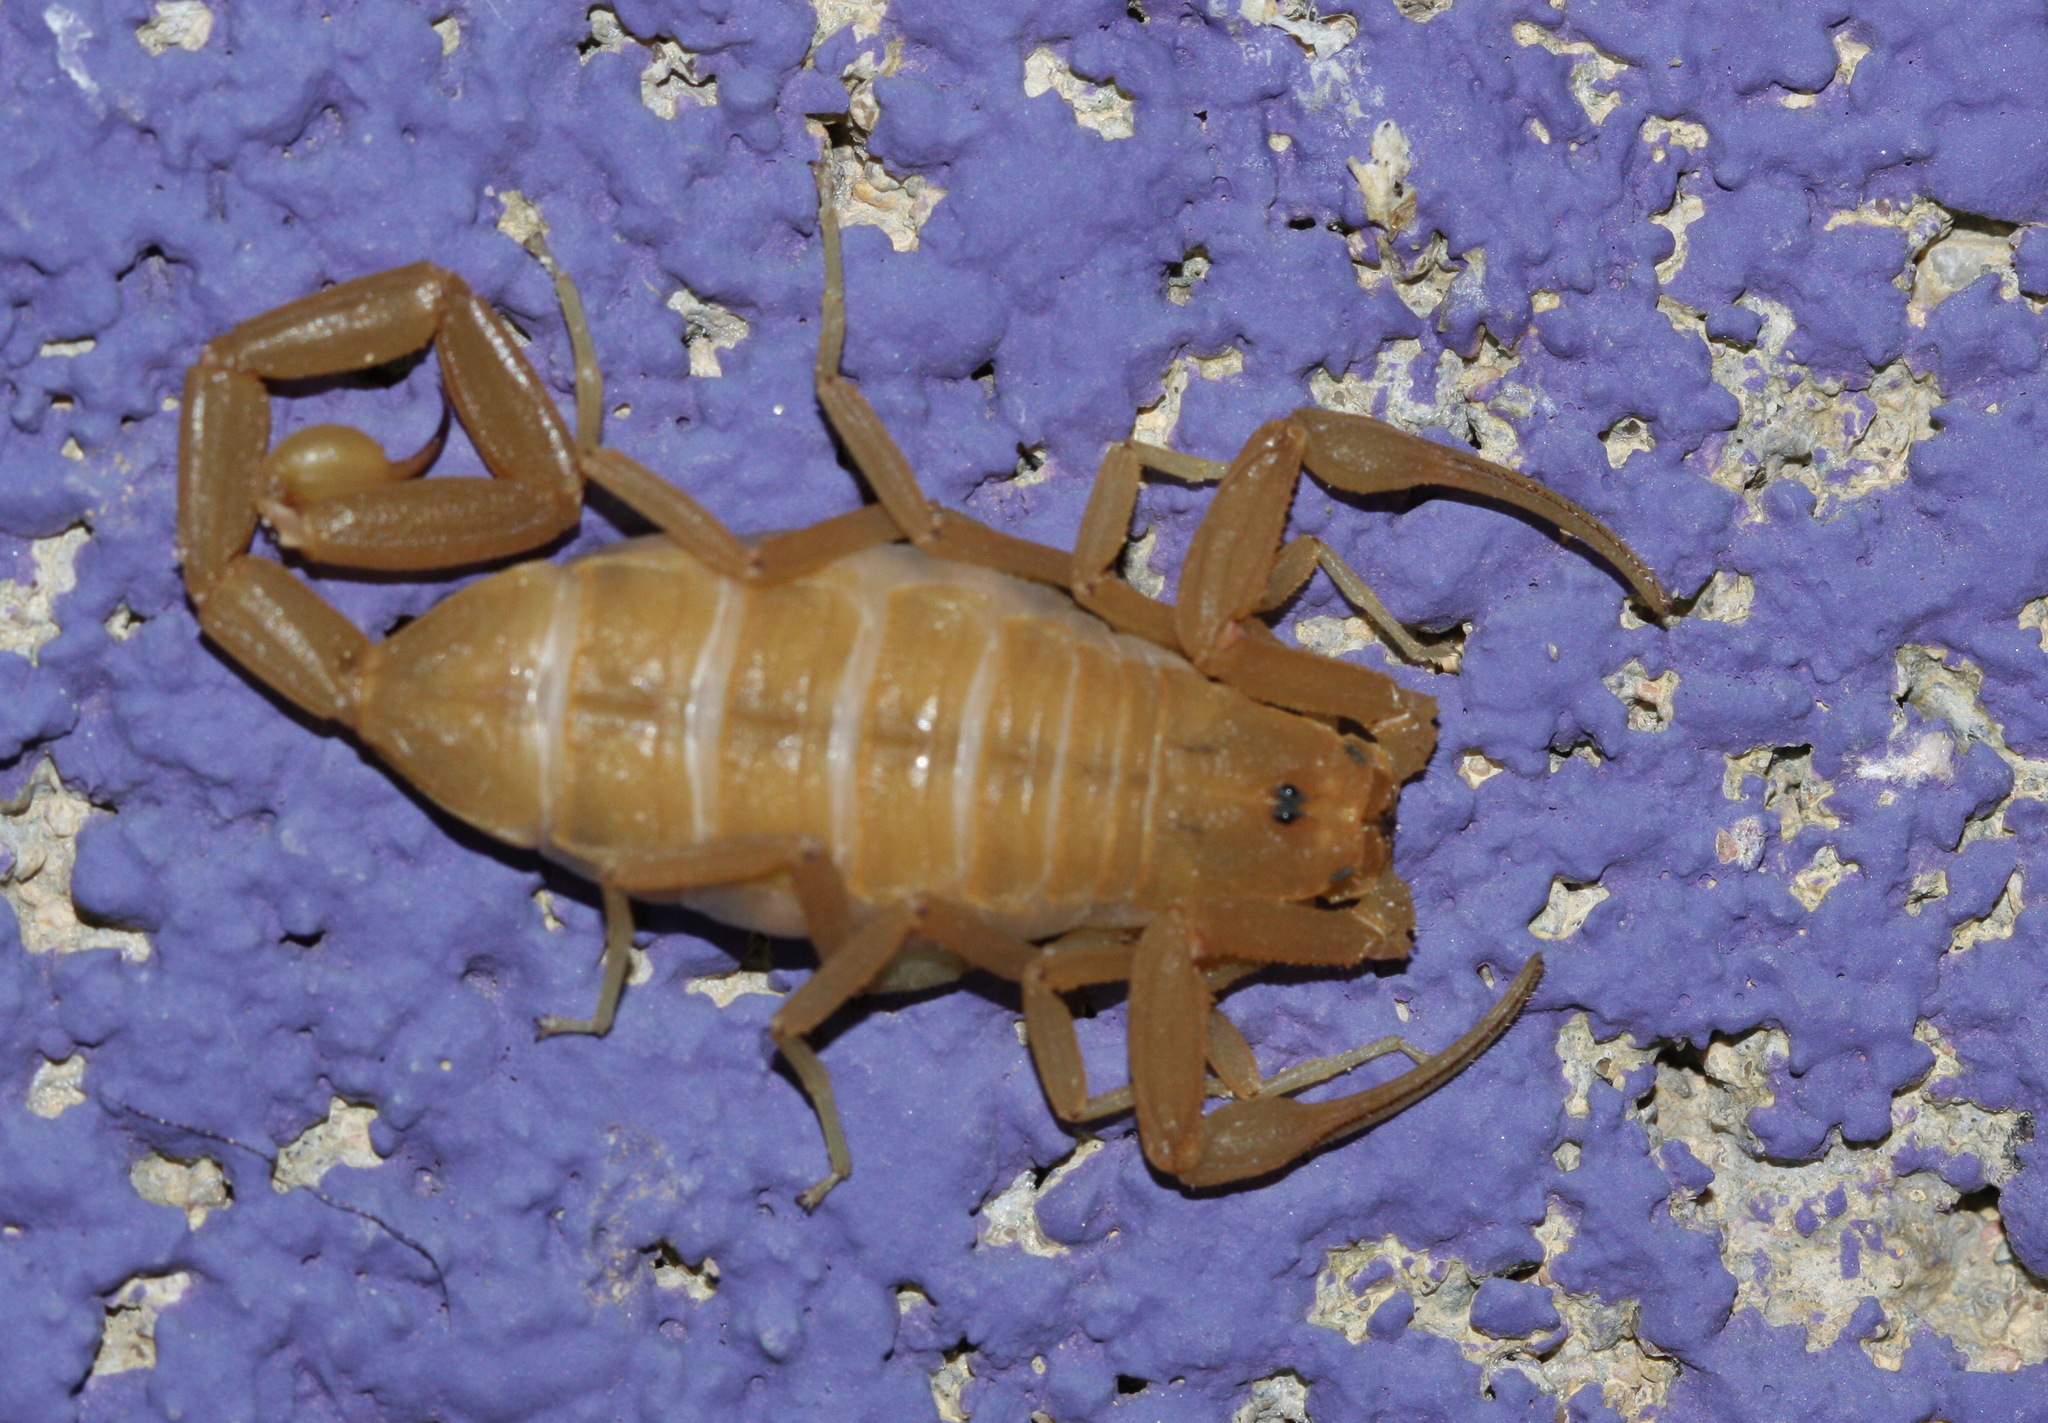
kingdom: Animalia
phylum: Arthropoda
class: Arachnida
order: Scorpiones
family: Buthidae
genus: Centruroides
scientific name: Centruroides sculpturatus
